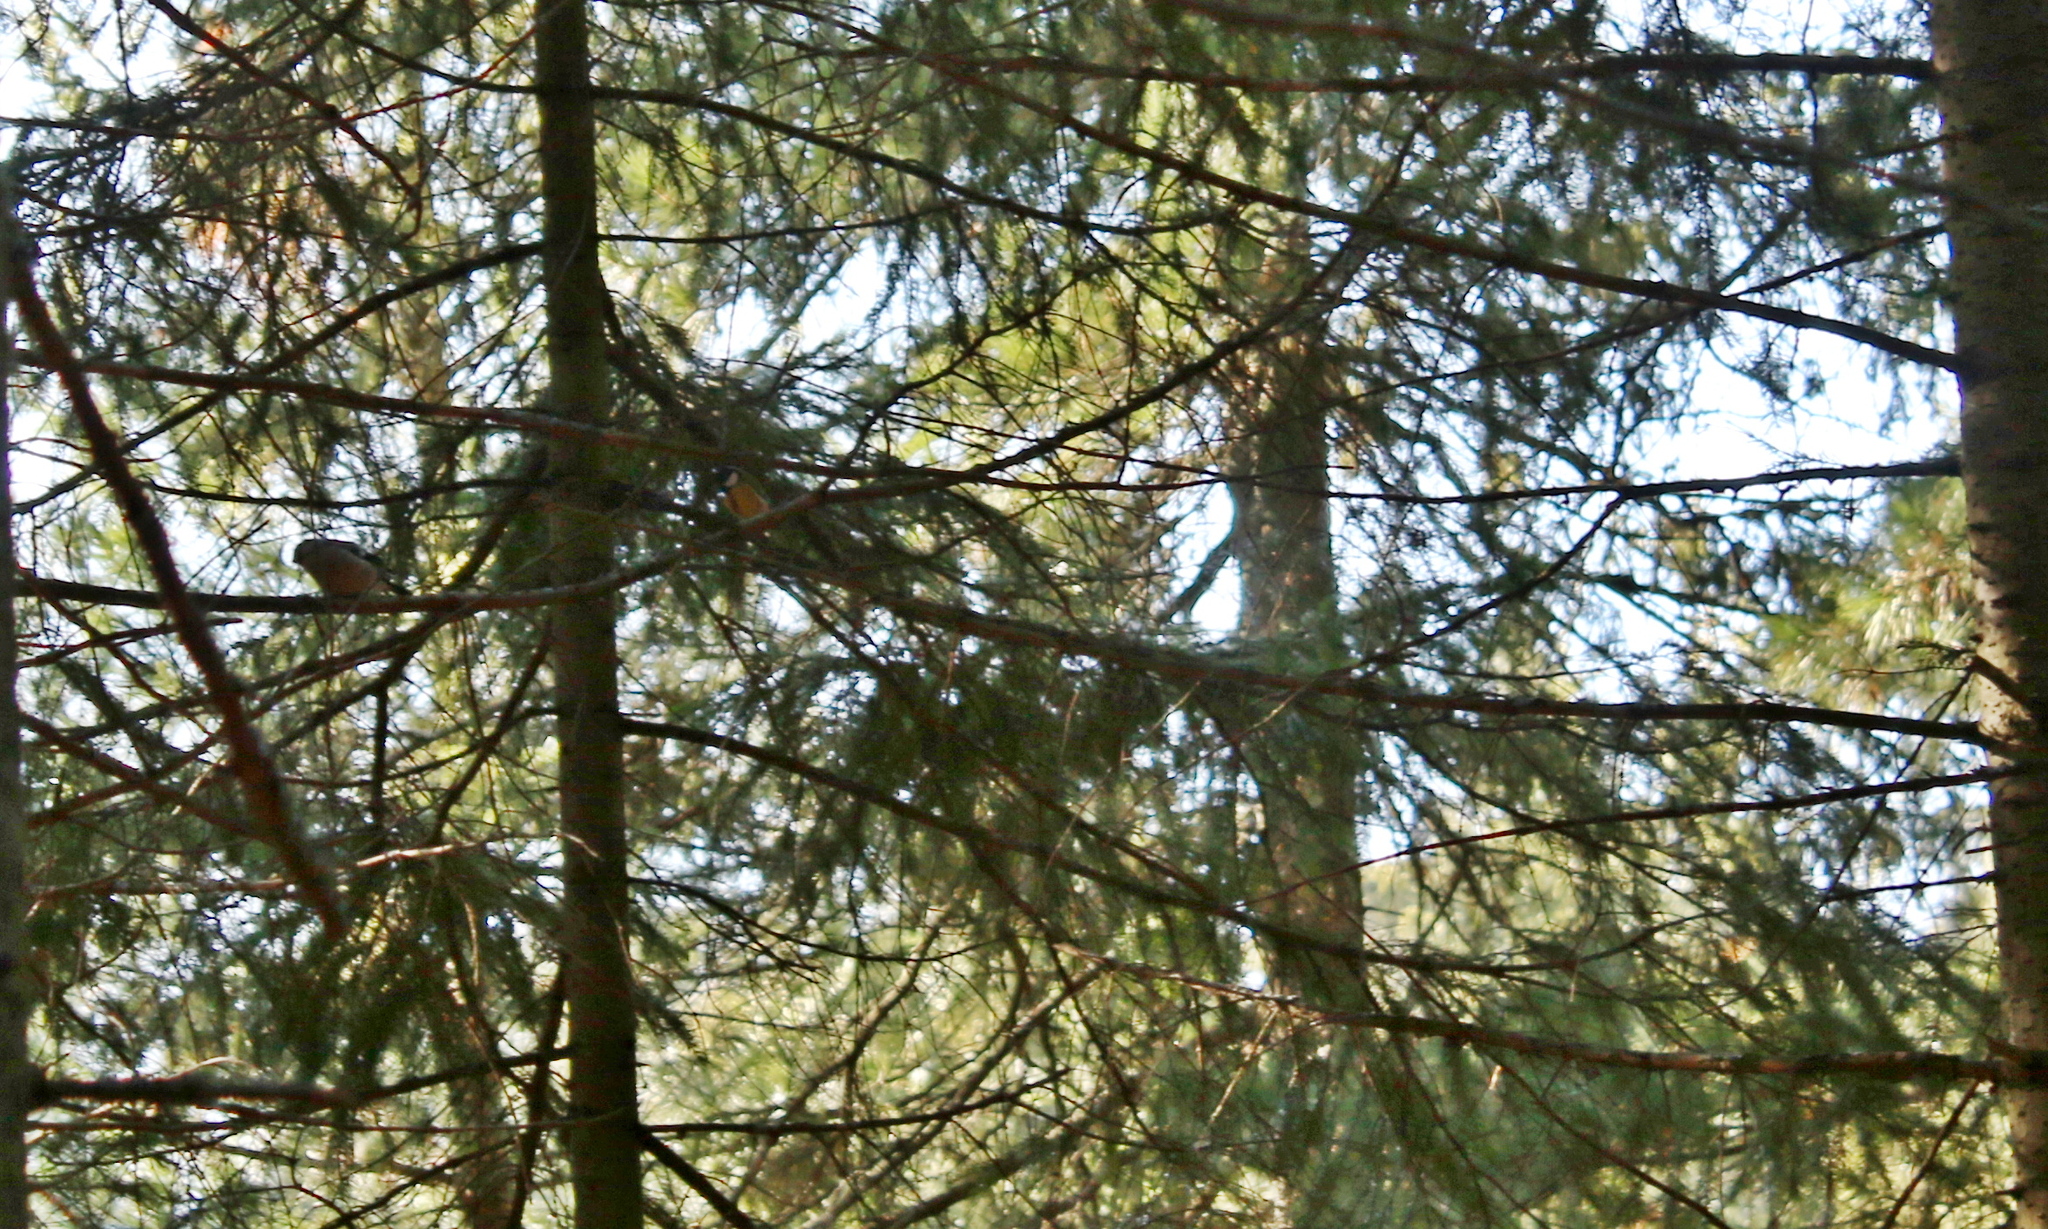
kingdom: Animalia
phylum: Chordata
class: Aves
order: Passeriformes
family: Fringillidae
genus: Pyrrhula
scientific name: Pyrrhula pyrrhula
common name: Eurasian bullfinch
